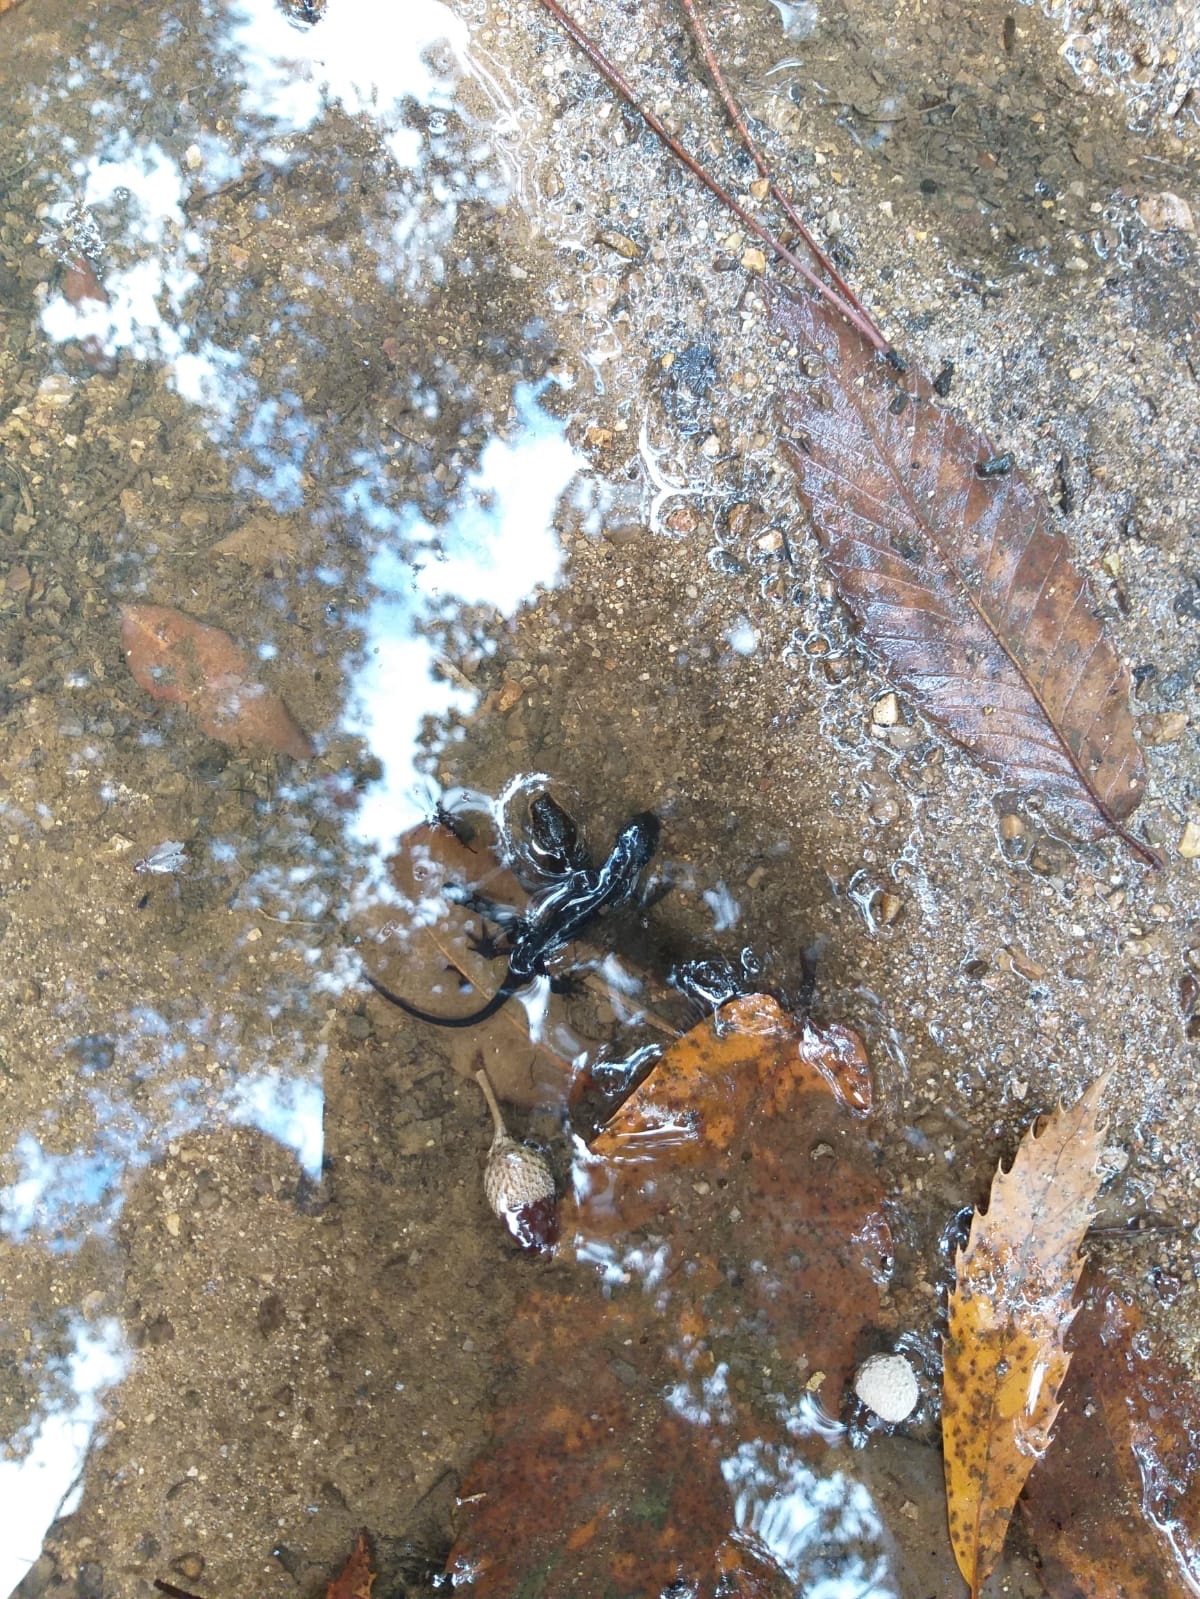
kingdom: Animalia
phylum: Chordata
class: Amphibia
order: Caudata
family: Salamandridae
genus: Ichthyosaura
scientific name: Ichthyosaura alpestris
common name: Alpine newt
